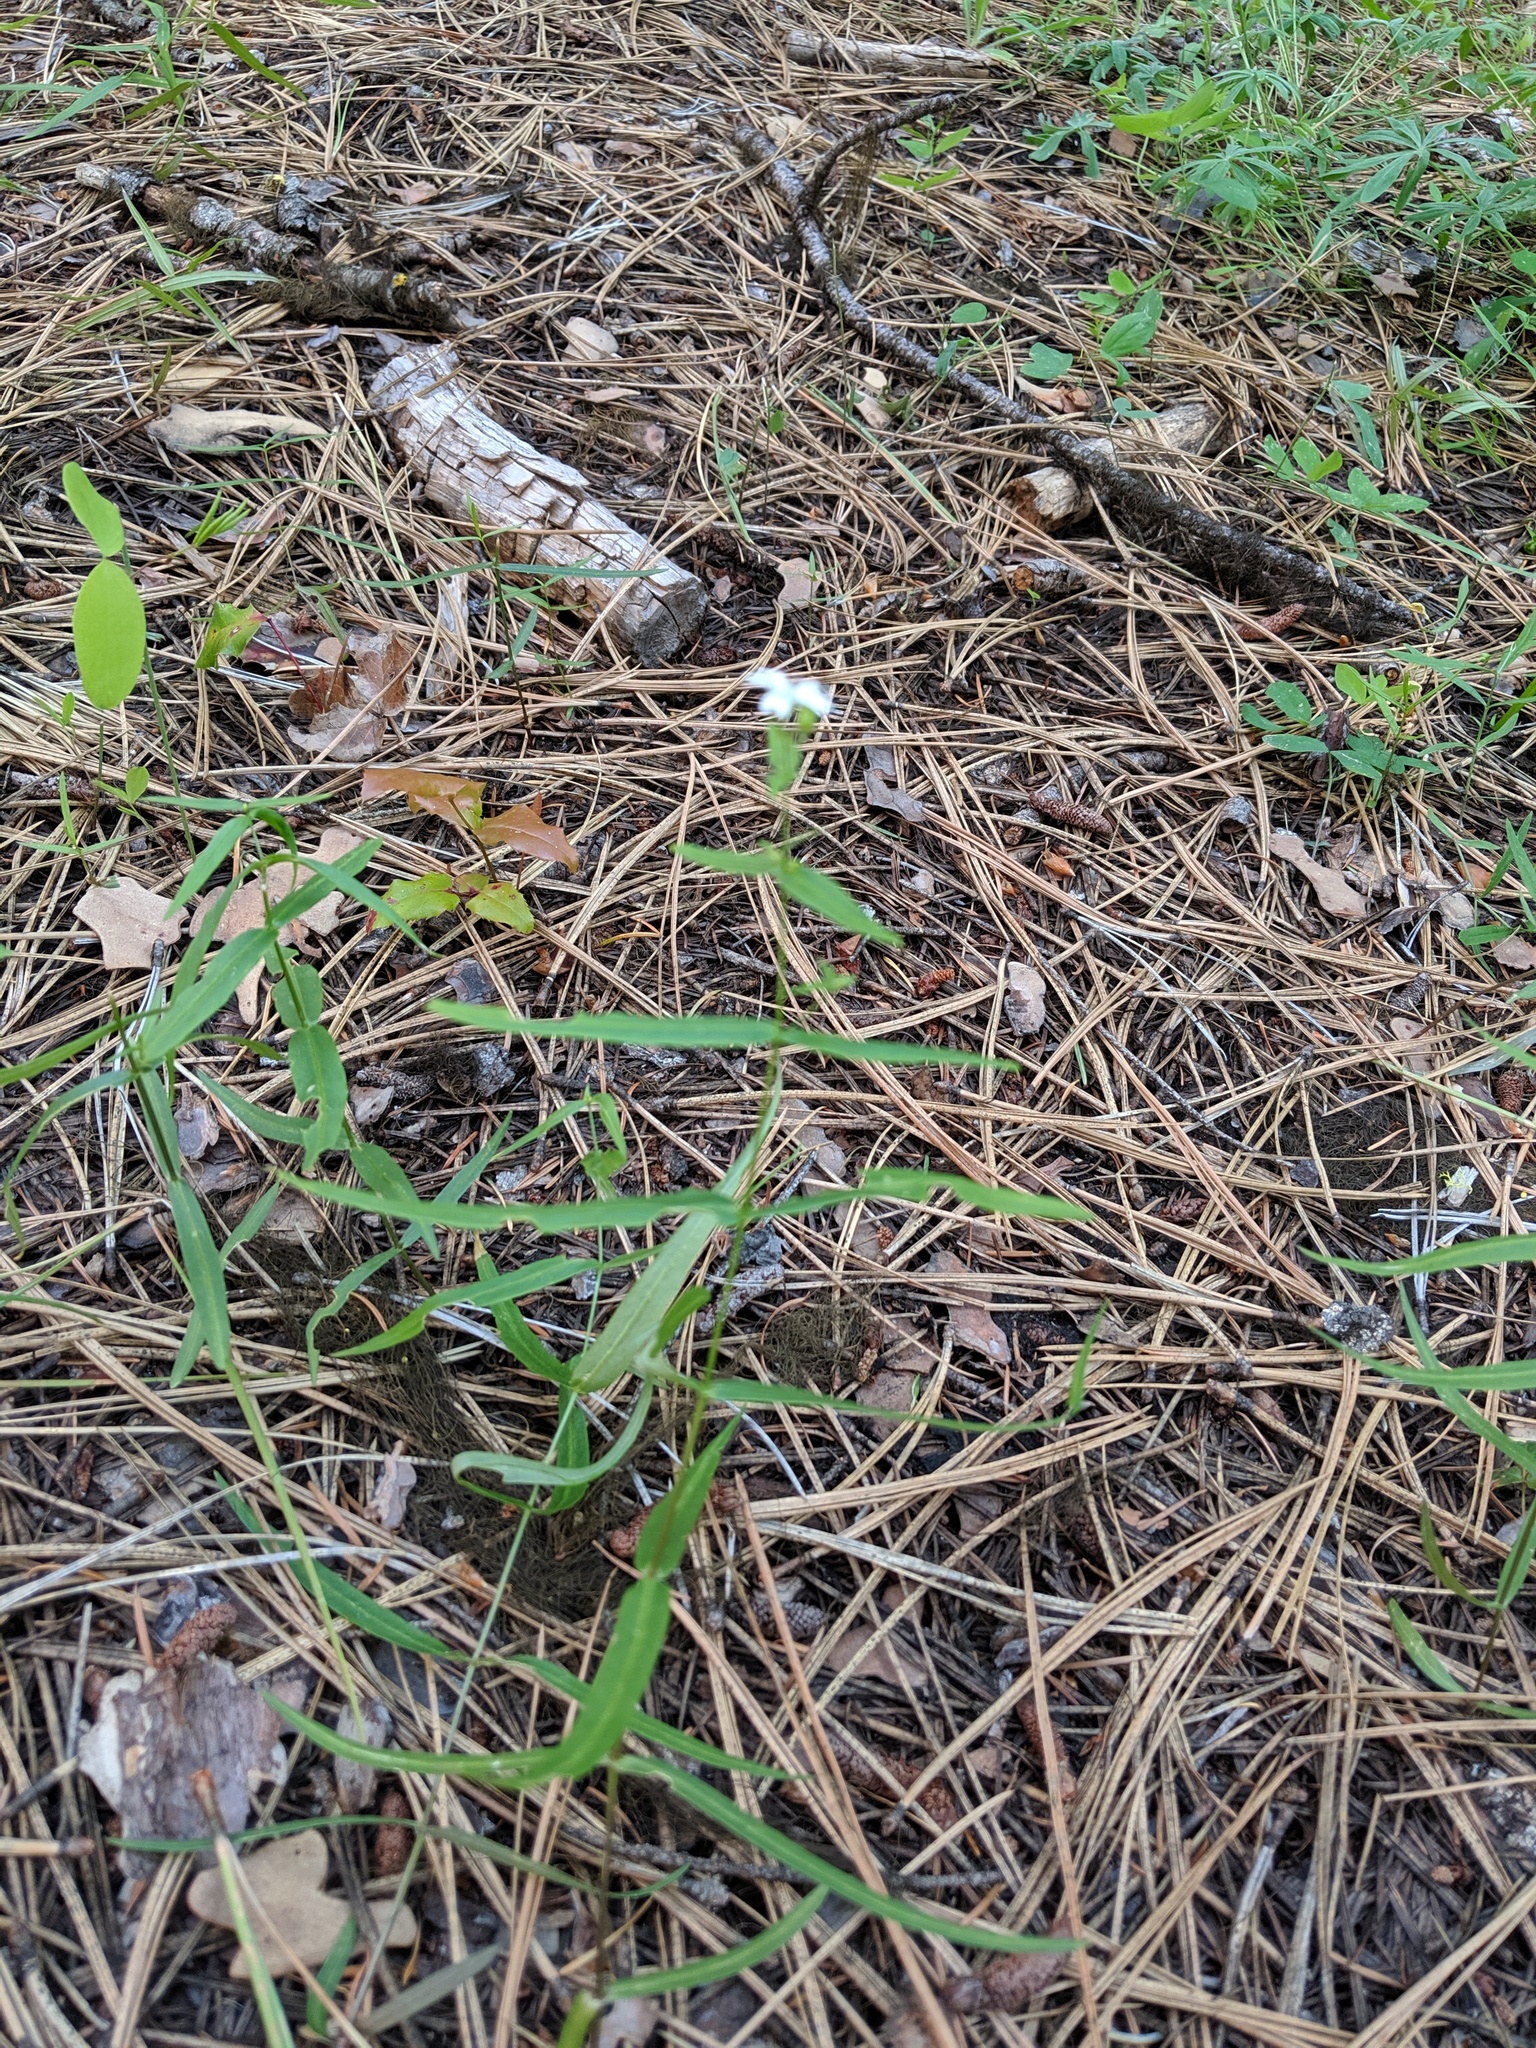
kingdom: Plantae
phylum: Tracheophyta
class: Magnoliopsida
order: Caryophyllales
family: Caryophyllaceae
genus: Schizotechium
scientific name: Schizotechium jamesianum
